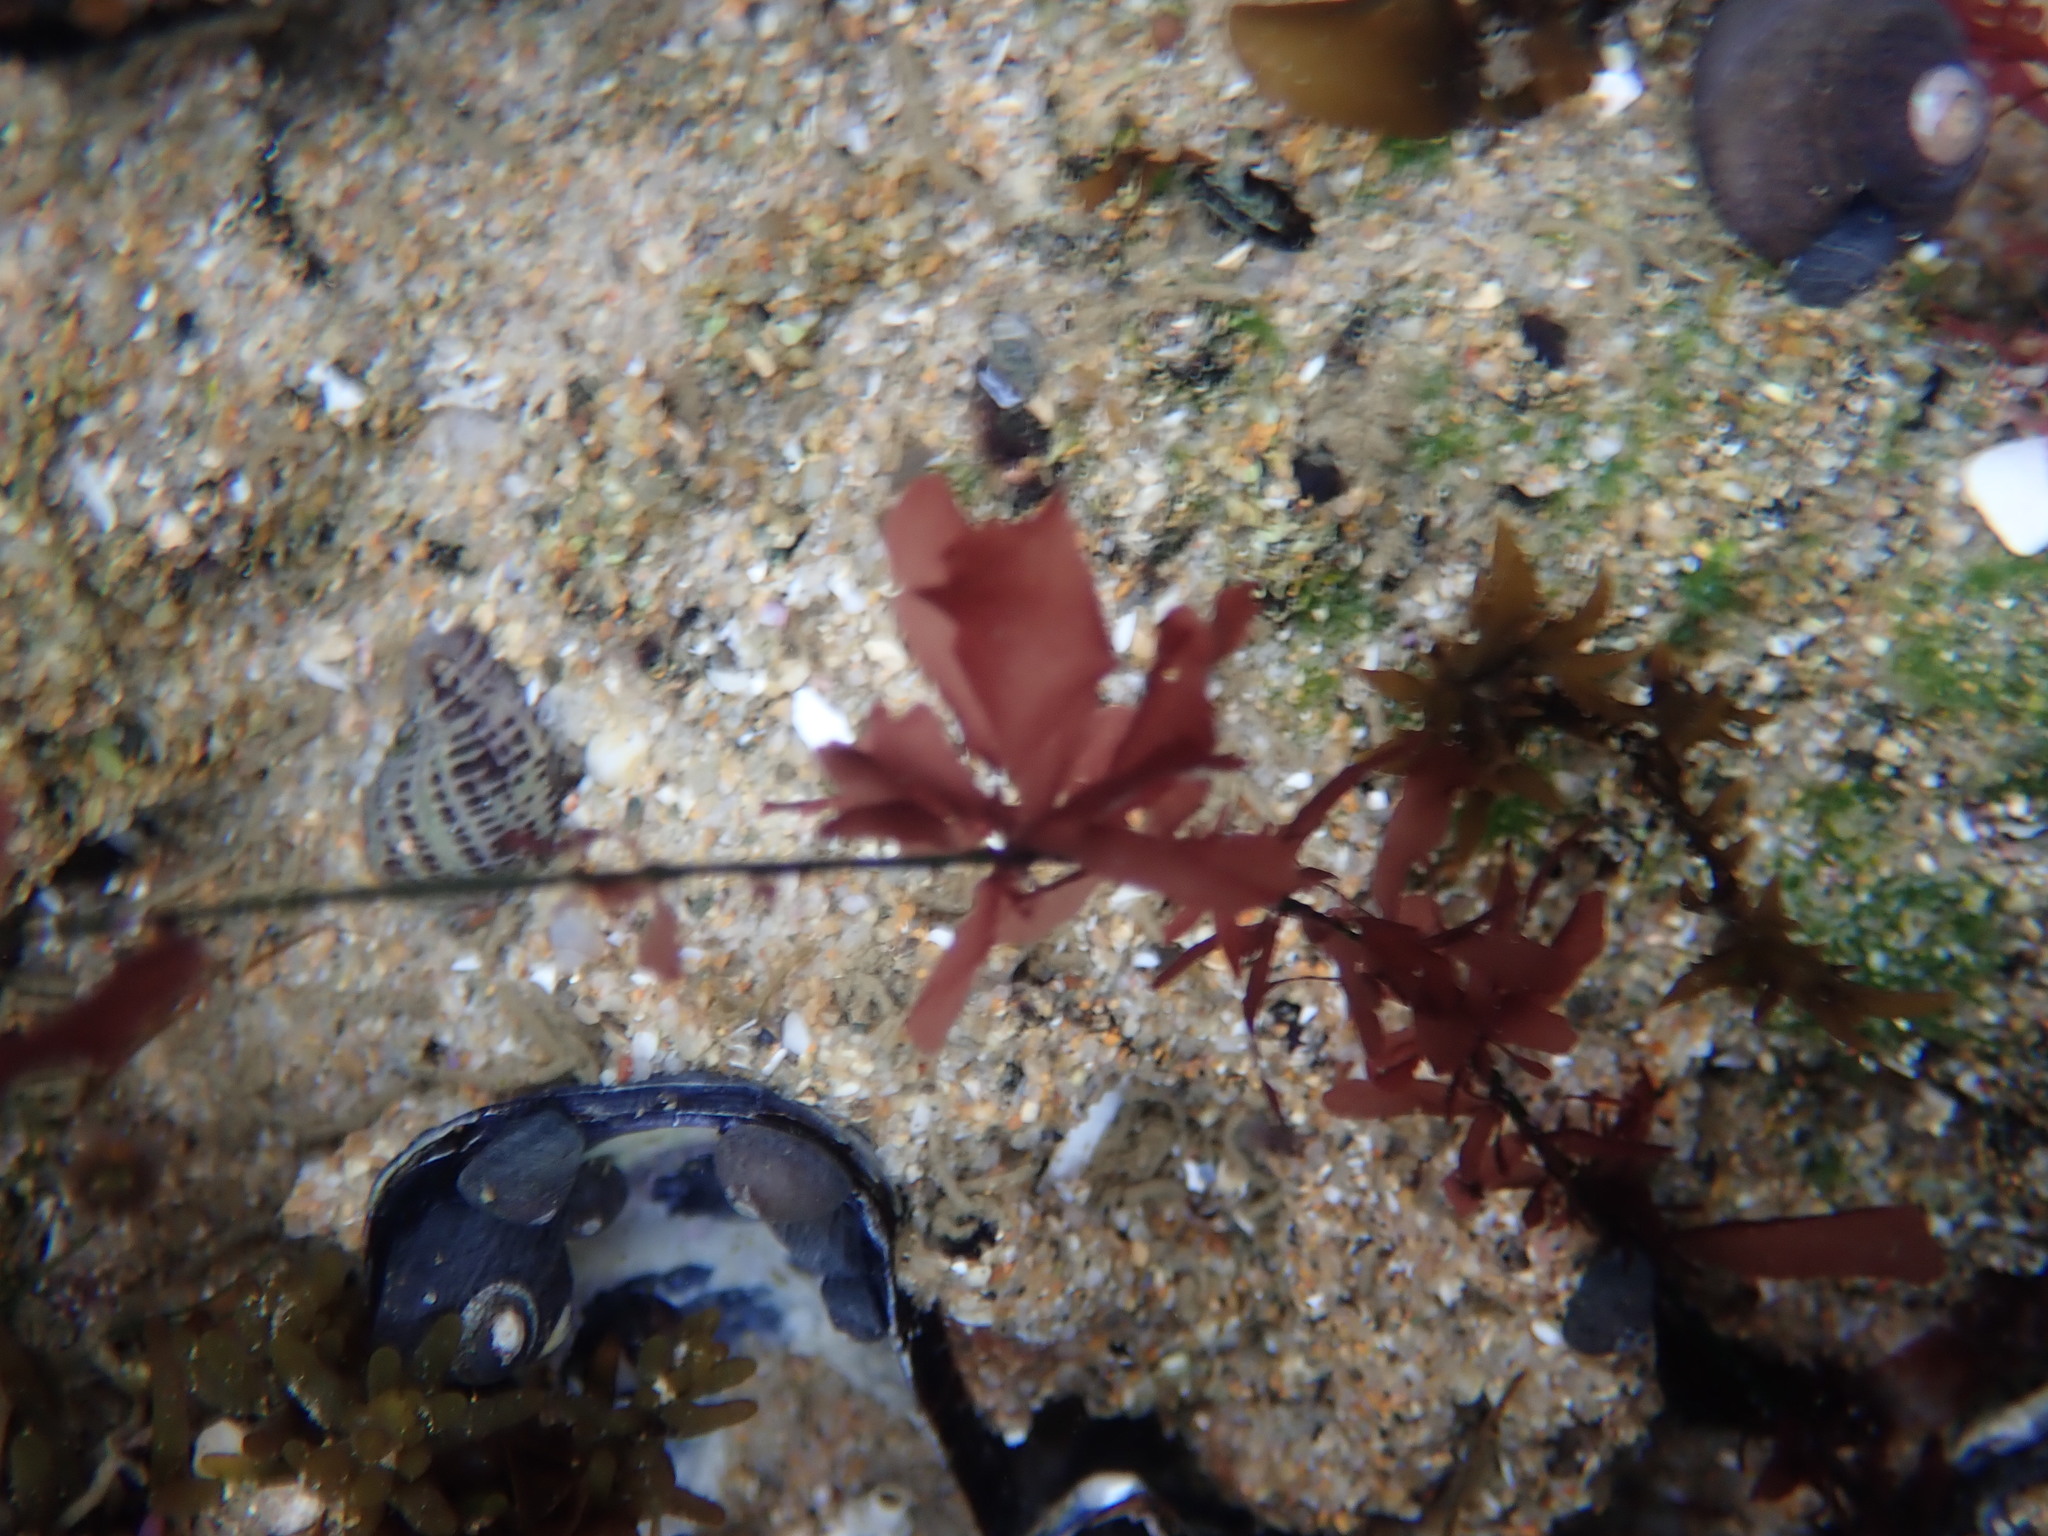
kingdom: Plantae
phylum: Rhodophyta
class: Compsopogonophyceae
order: Erythropeltidales
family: Erythrotrichiaceae
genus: Smithora
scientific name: Smithora naiadum
